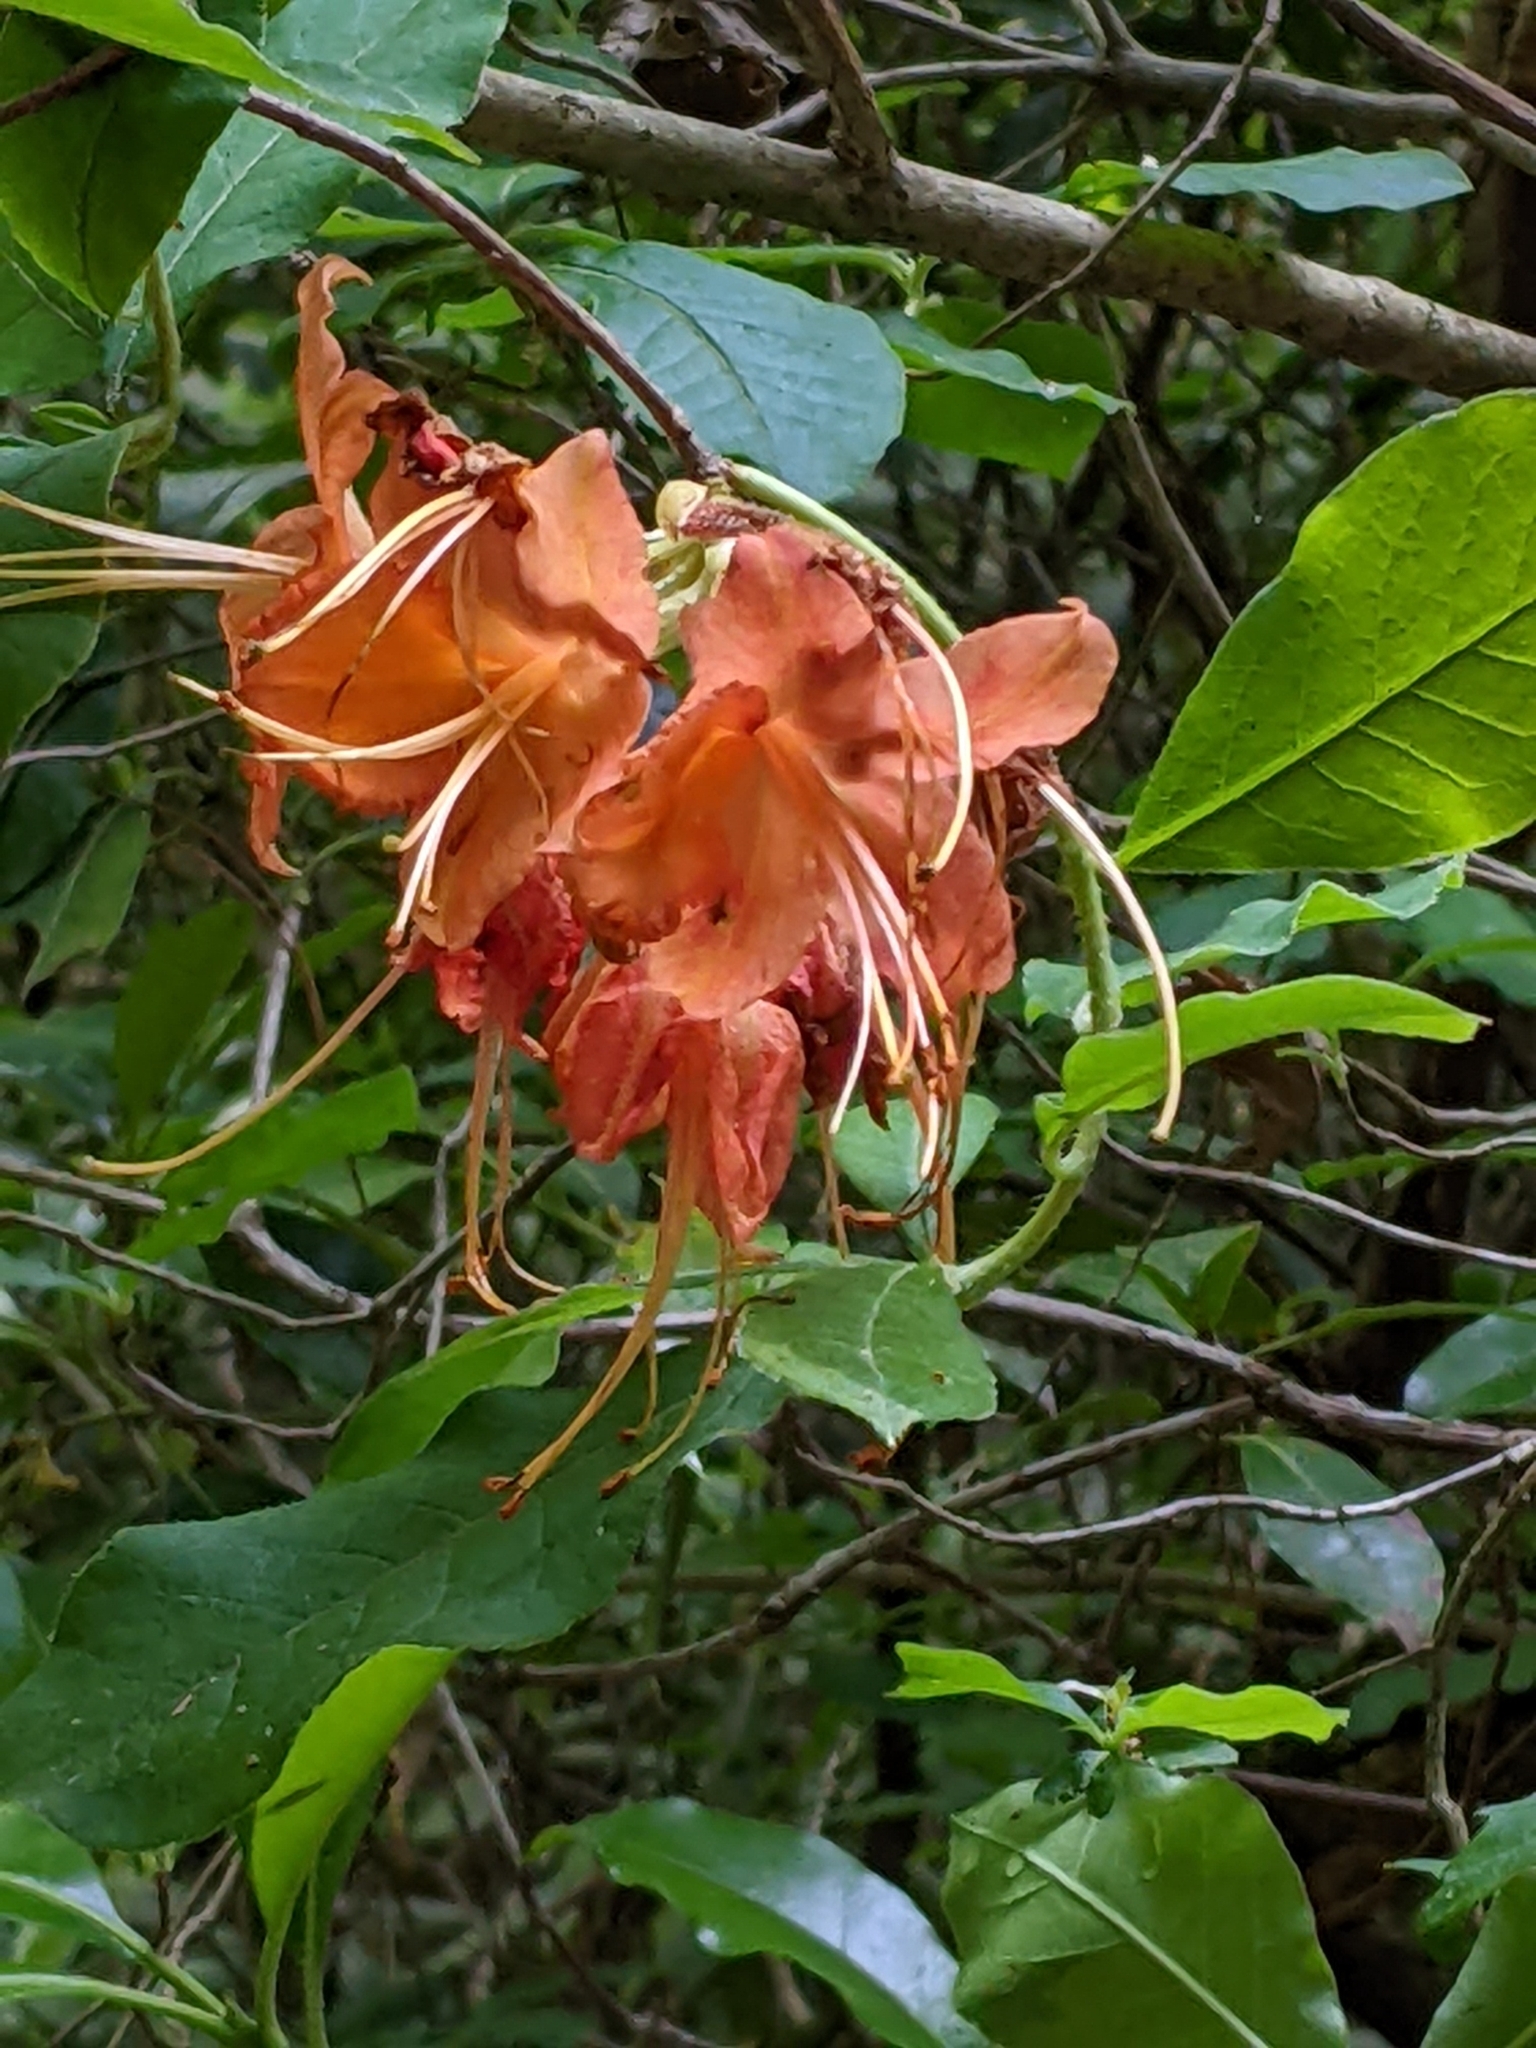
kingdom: Plantae
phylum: Tracheophyta
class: Magnoliopsida
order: Ericales
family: Ericaceae
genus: Rhododendron
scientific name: Rhododendron calendulaceum
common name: Flame azalea
